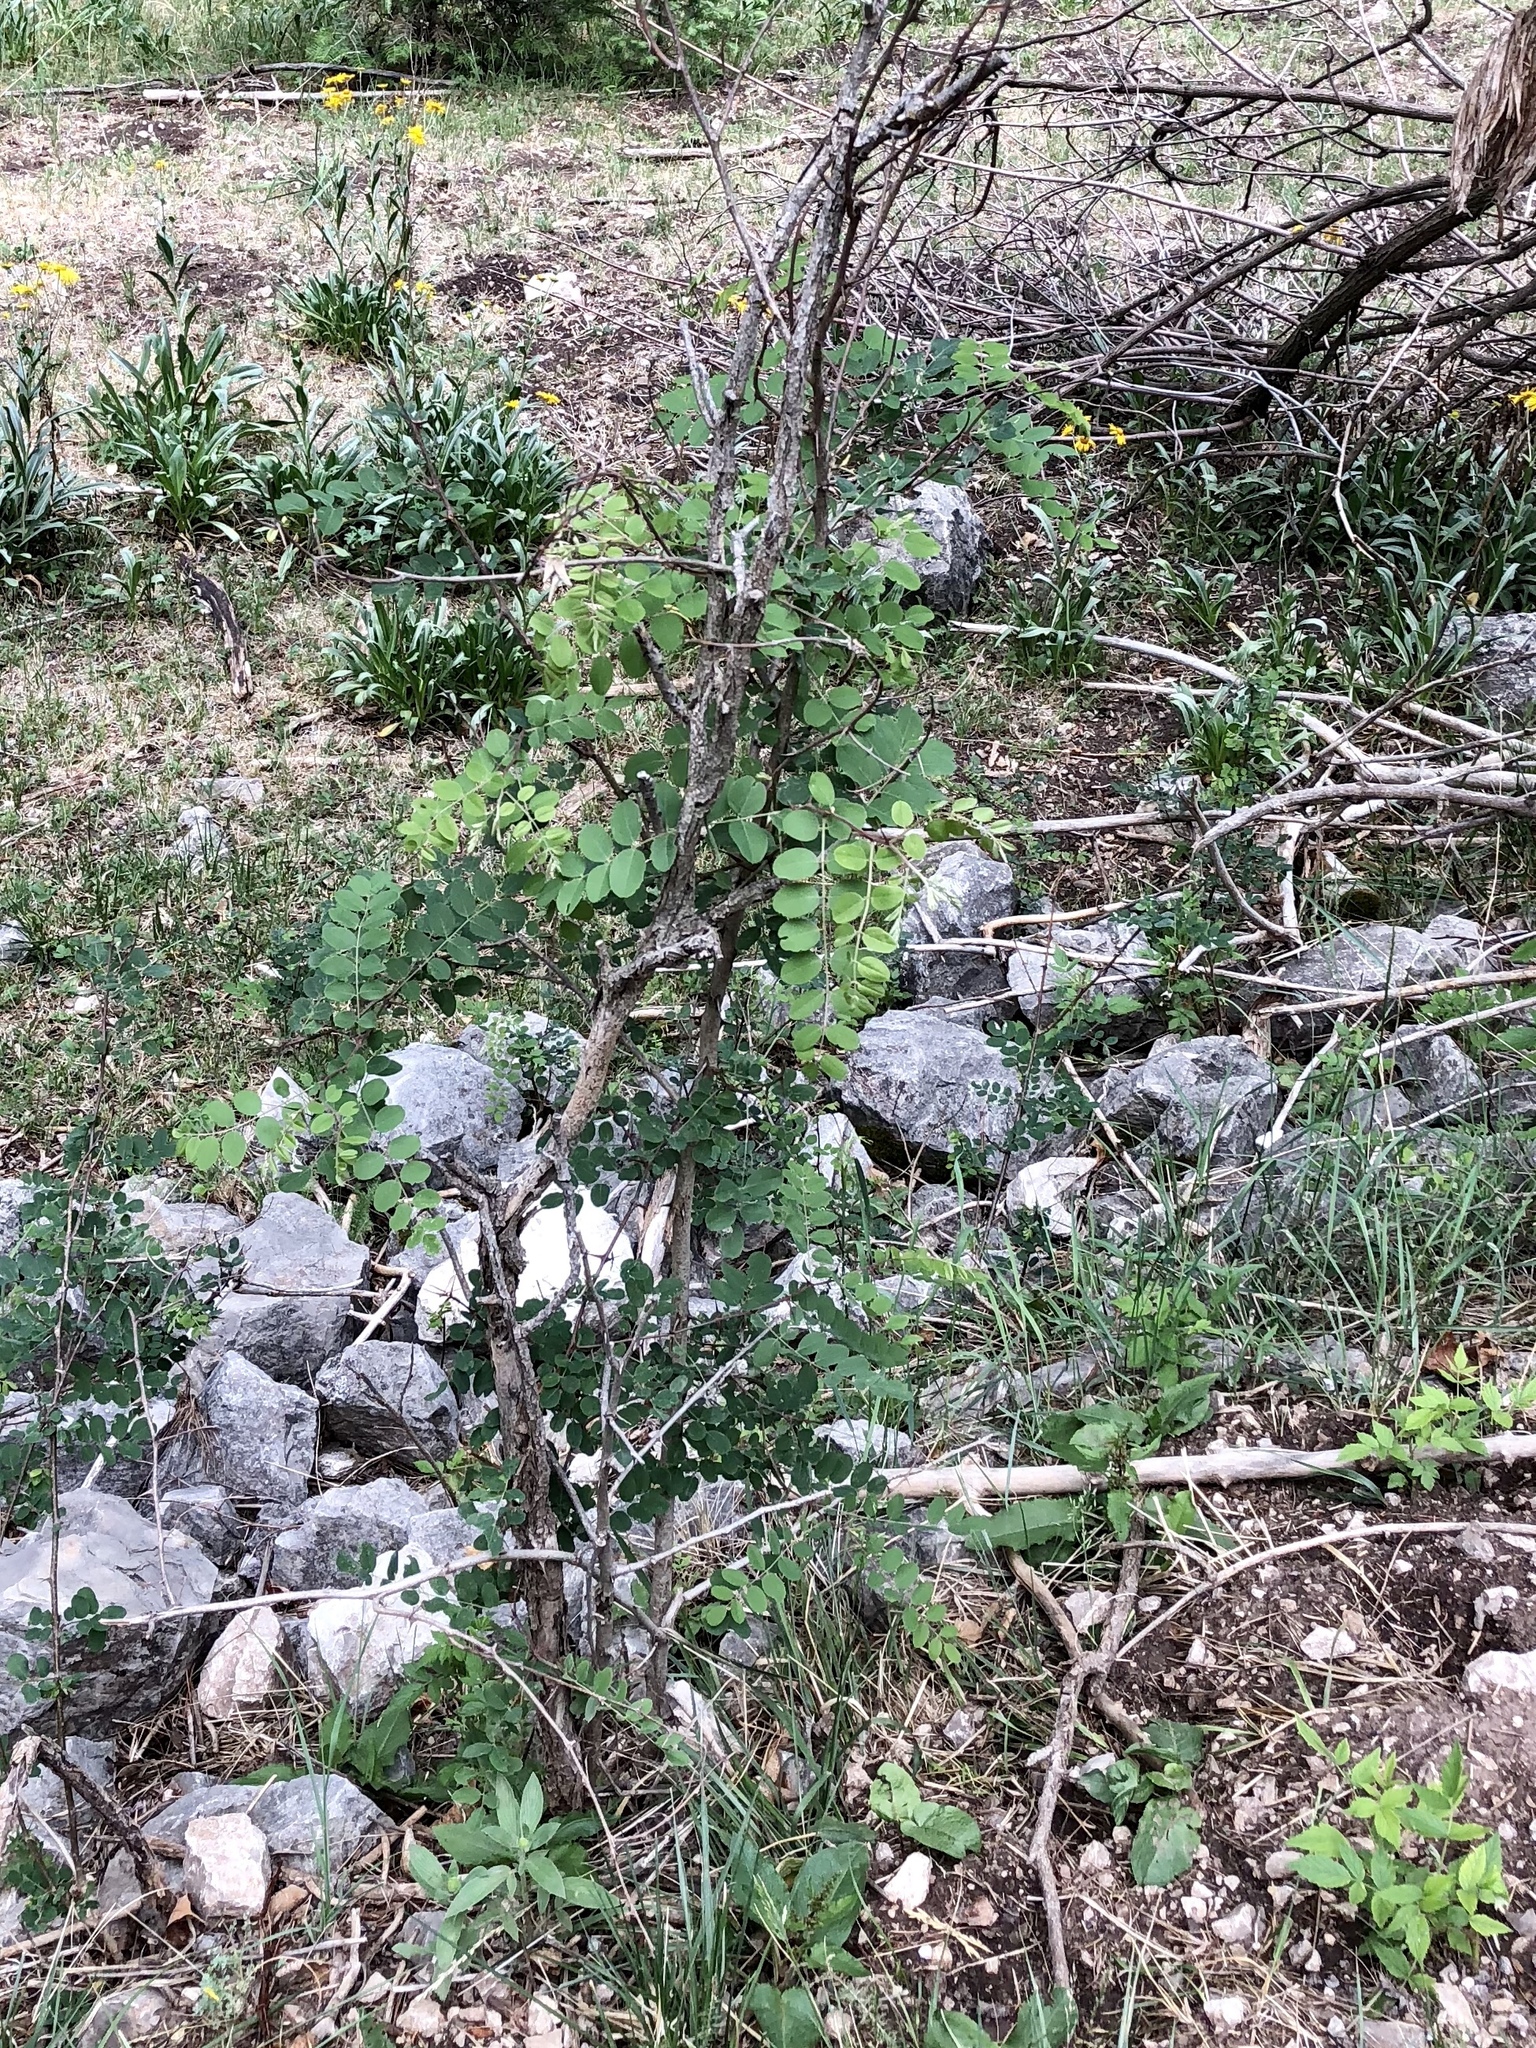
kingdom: Plantae
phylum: Tracheophyta
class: Magnoliopsida
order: Fabales
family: Fabaceae
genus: Robinia
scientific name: Robinia neomexicana
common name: New mexico locust
